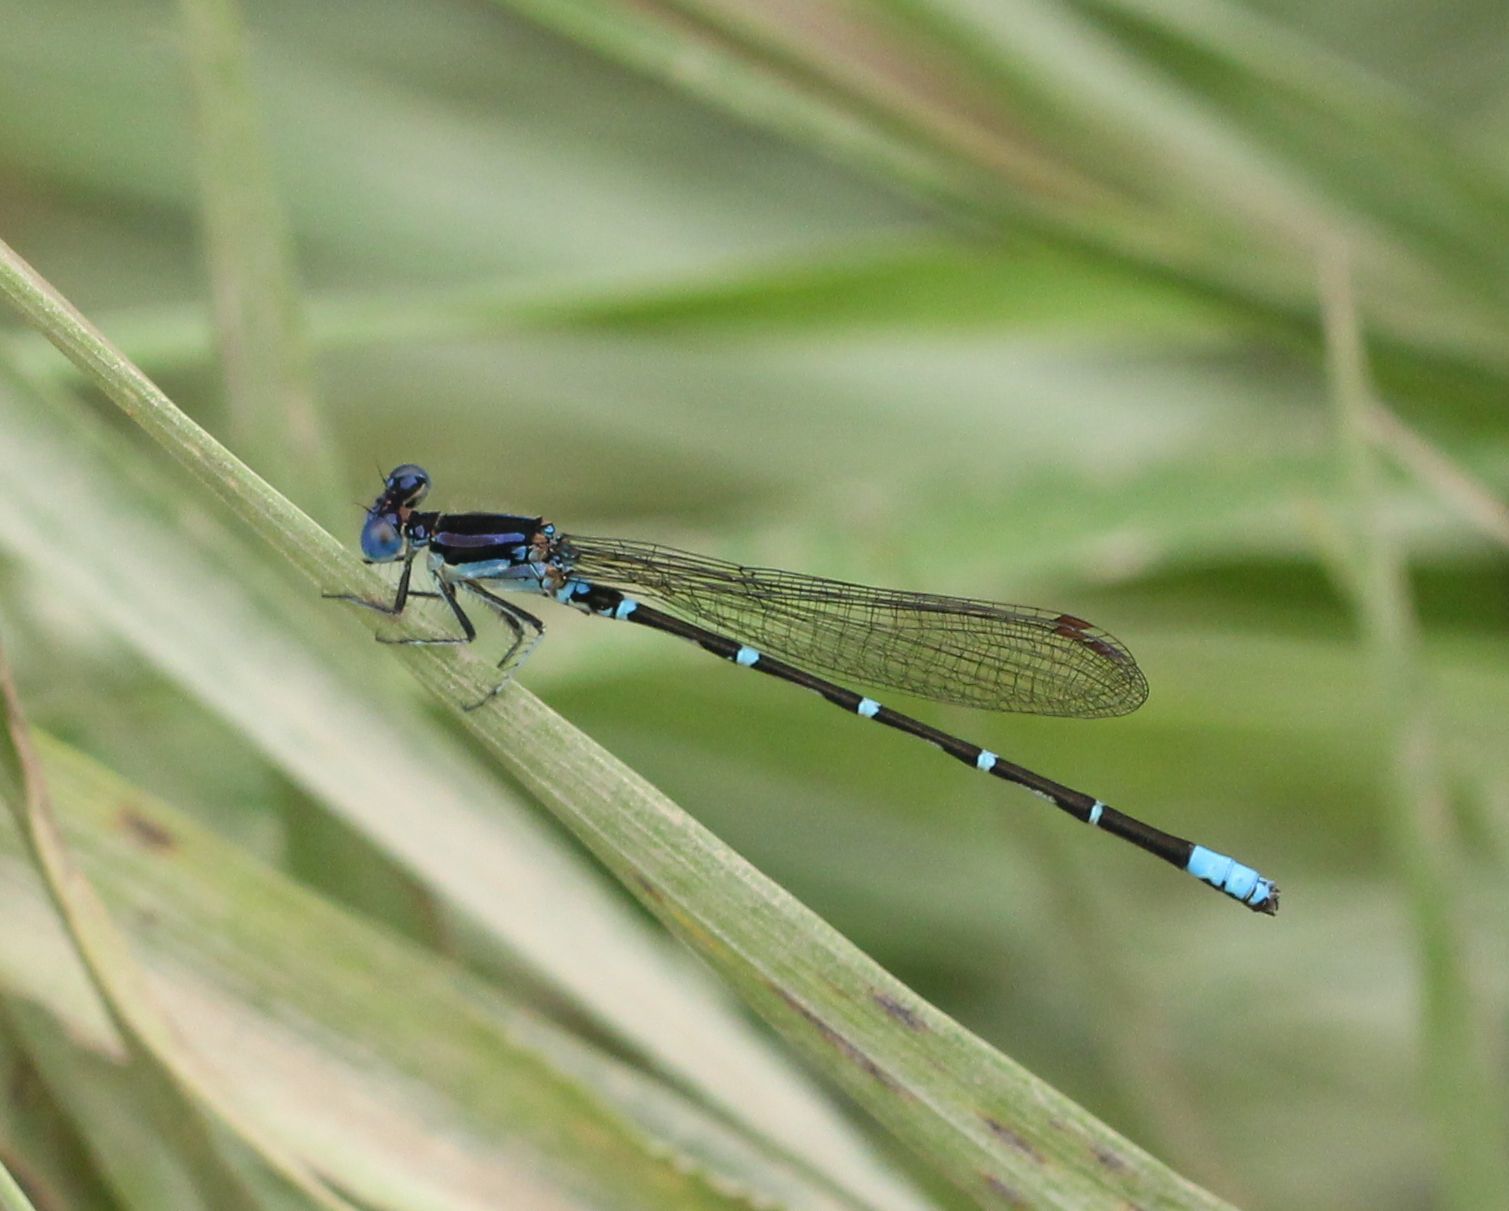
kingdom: Animalia
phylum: Arthropoda
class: Insecta
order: Odonata
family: Coenagrionidae
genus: Argia
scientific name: Argia sedula
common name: Blue-ringed dancer
